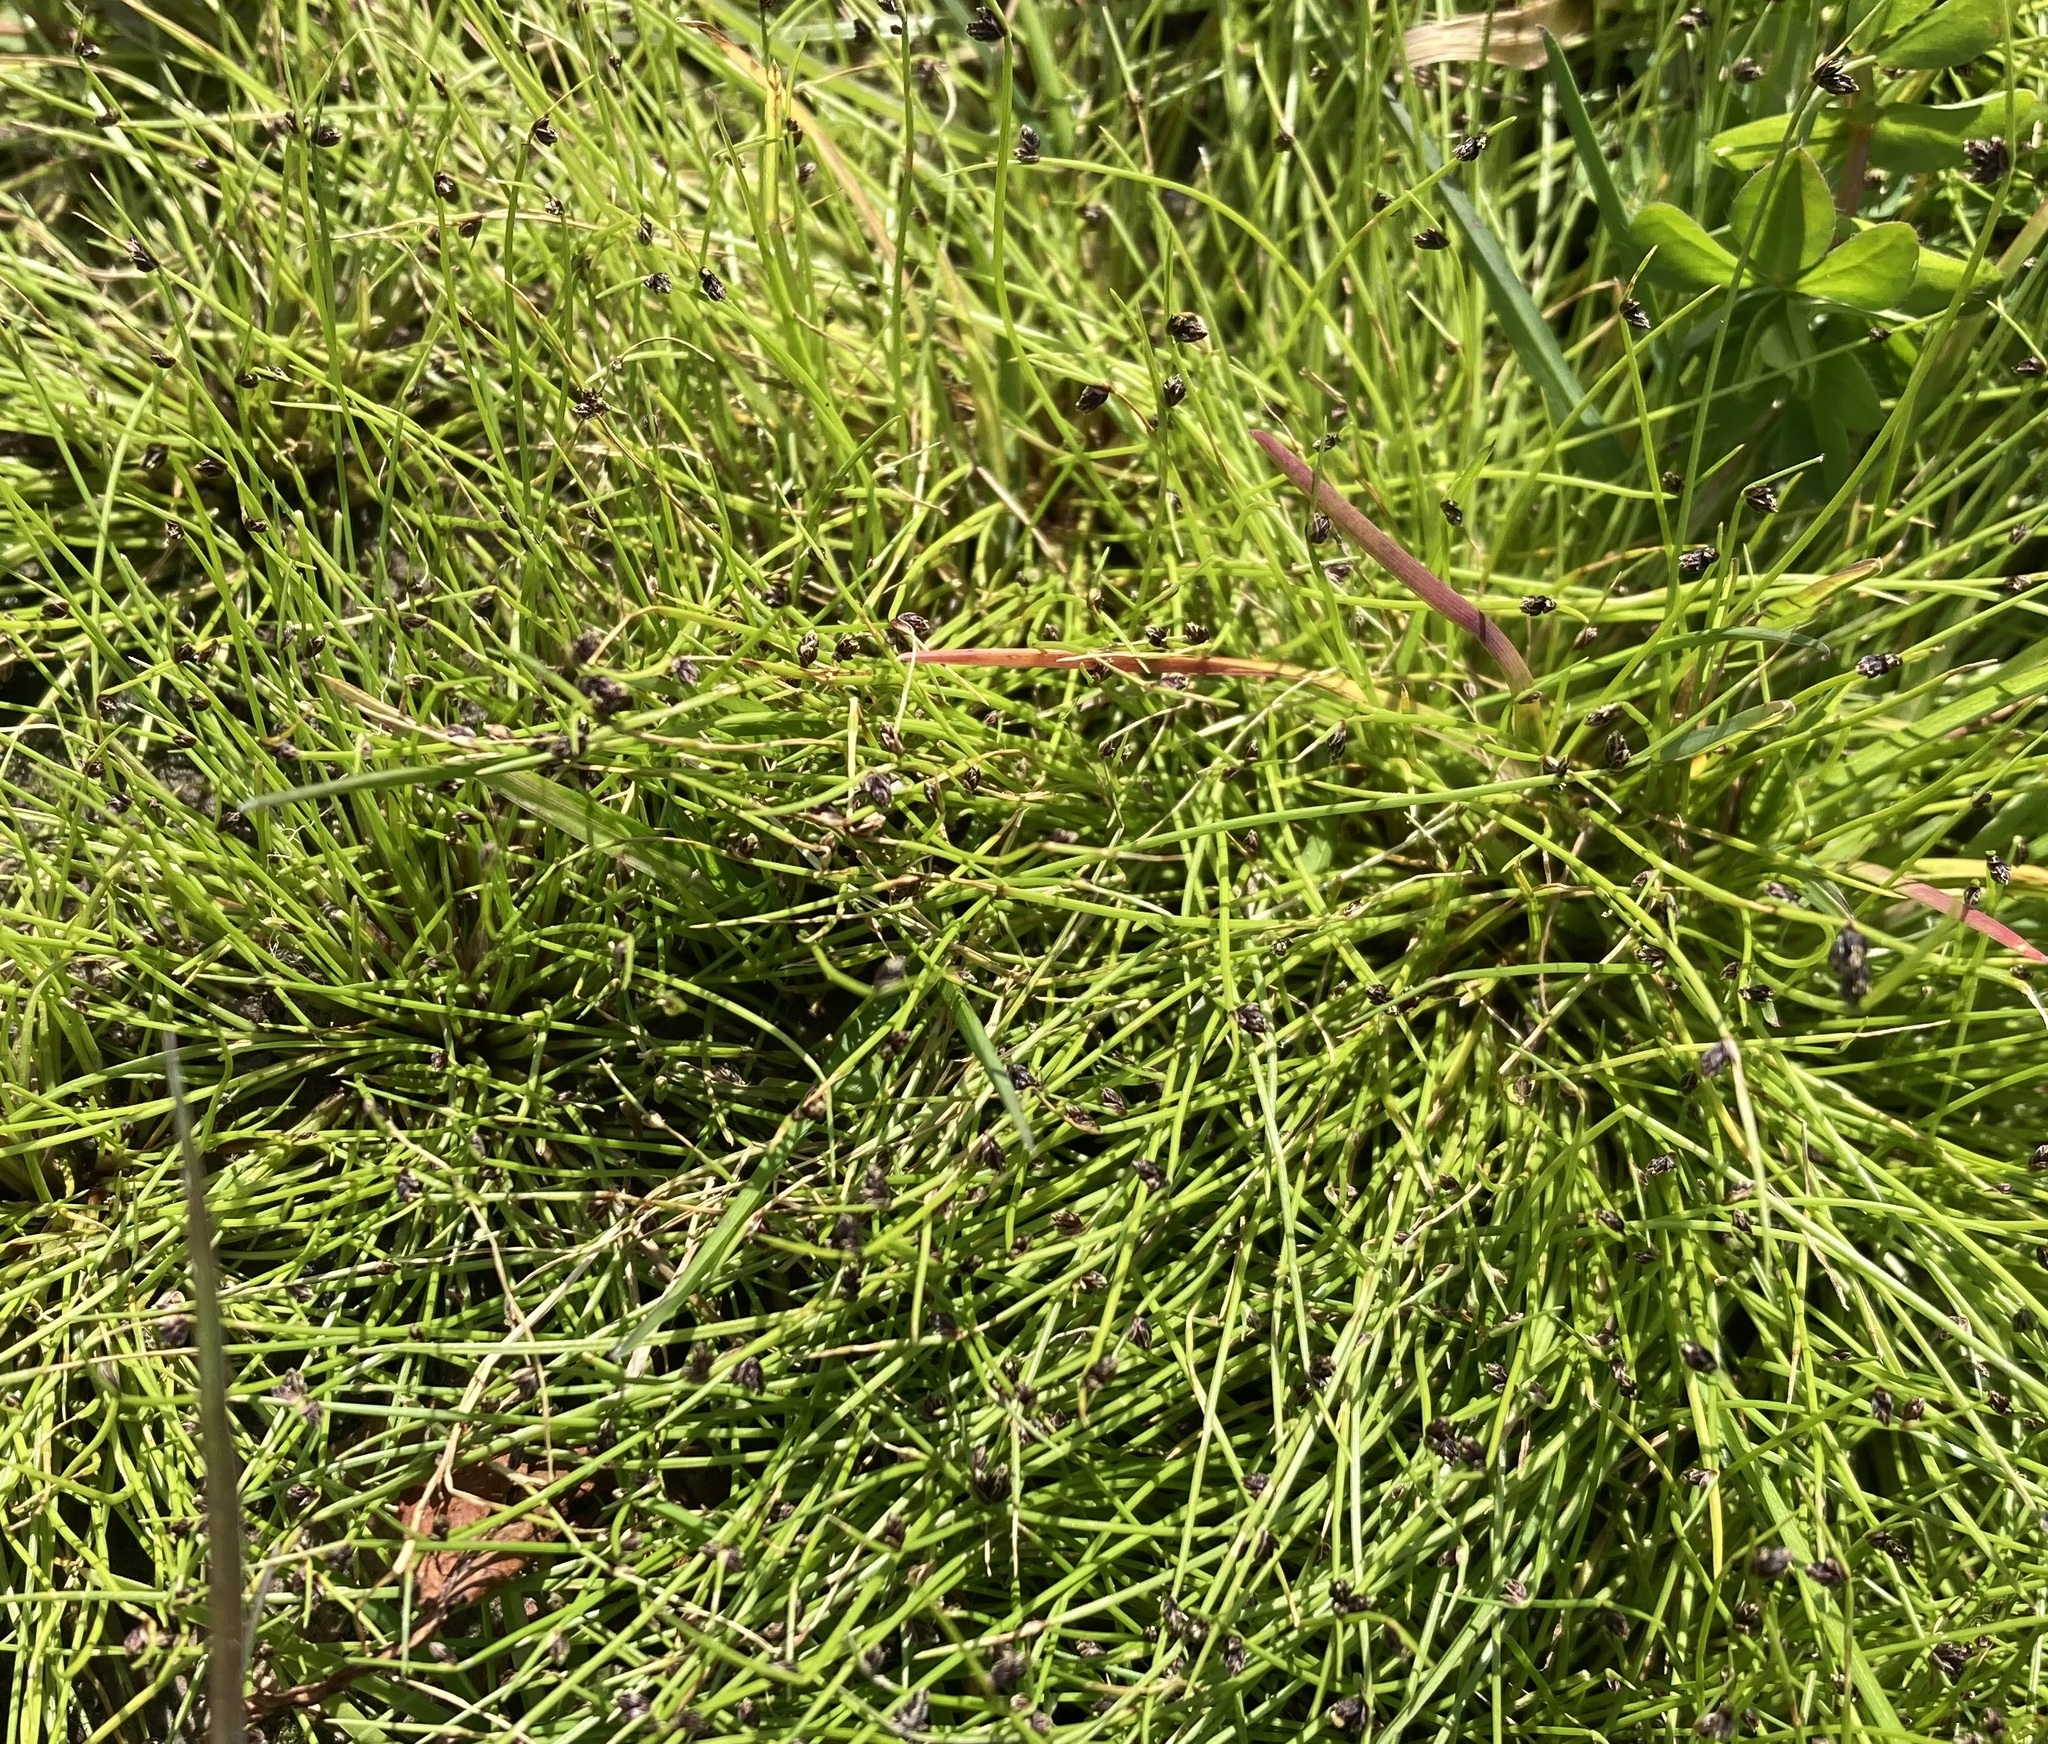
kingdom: Plantae
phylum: Tracheophyta
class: Liliopsida
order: Poales
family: Cyperaceae
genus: Isolepis
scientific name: Isolepis cernua
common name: Slender club-rush
